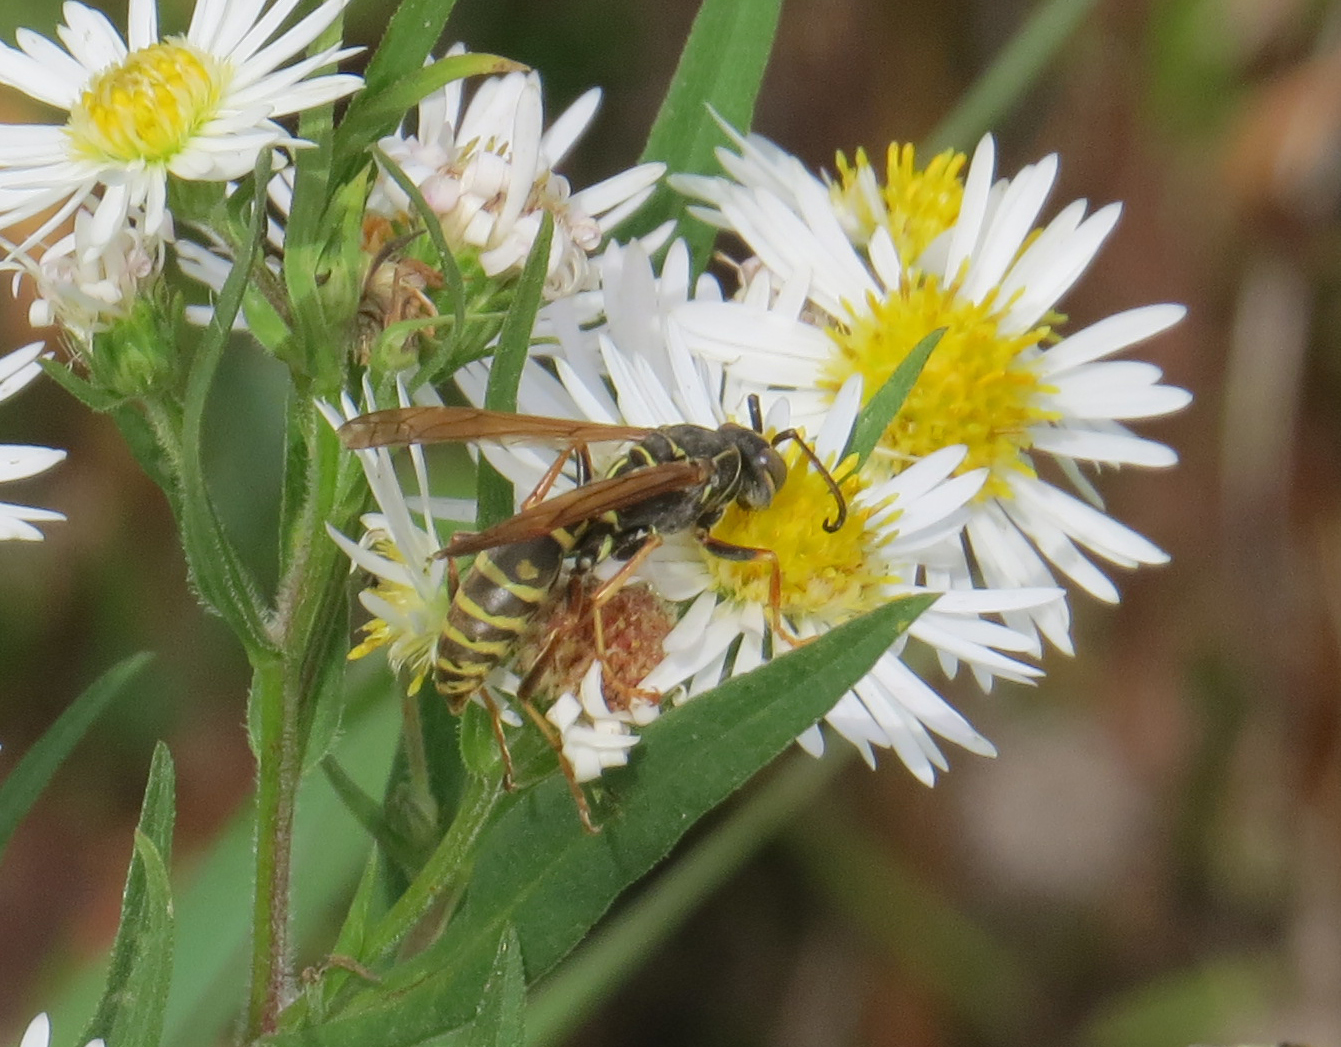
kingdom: Animalia
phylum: Arthropoda
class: Insecta
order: Hymenoptera
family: Eumenidae
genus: Polistes
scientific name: Polistes fuscatus
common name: Dark paper wasp
